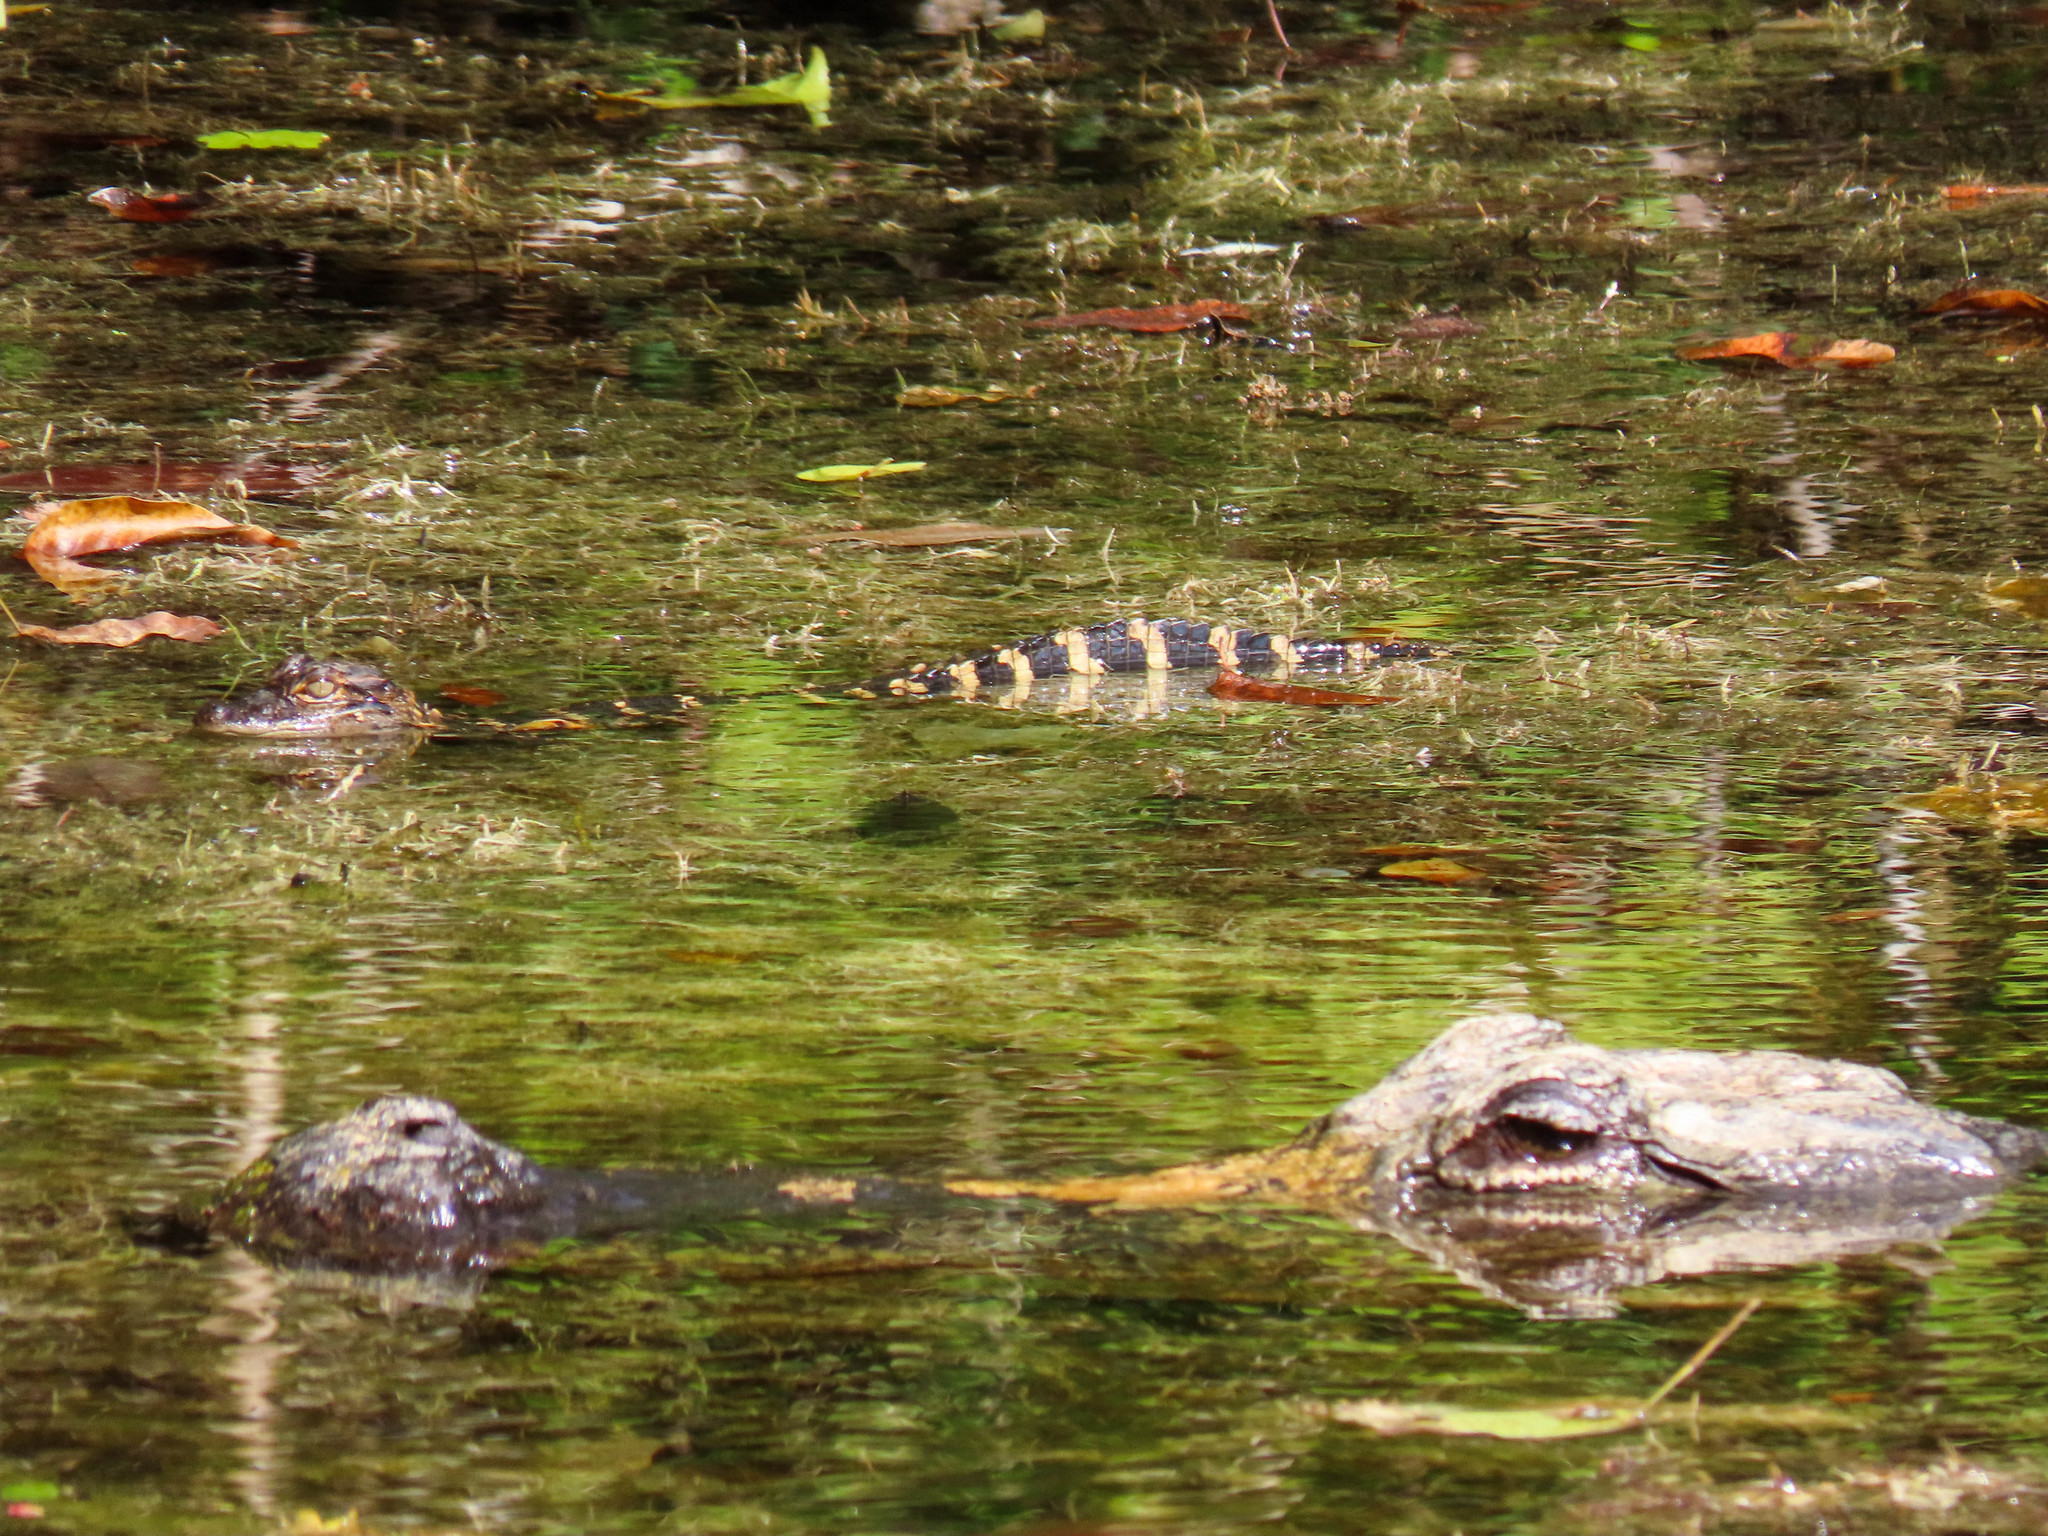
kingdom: Animalia
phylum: Chordata
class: Crocodylia
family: Alligatoridae
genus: Alligator
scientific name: Alligator mississippiensis
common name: American alligator
